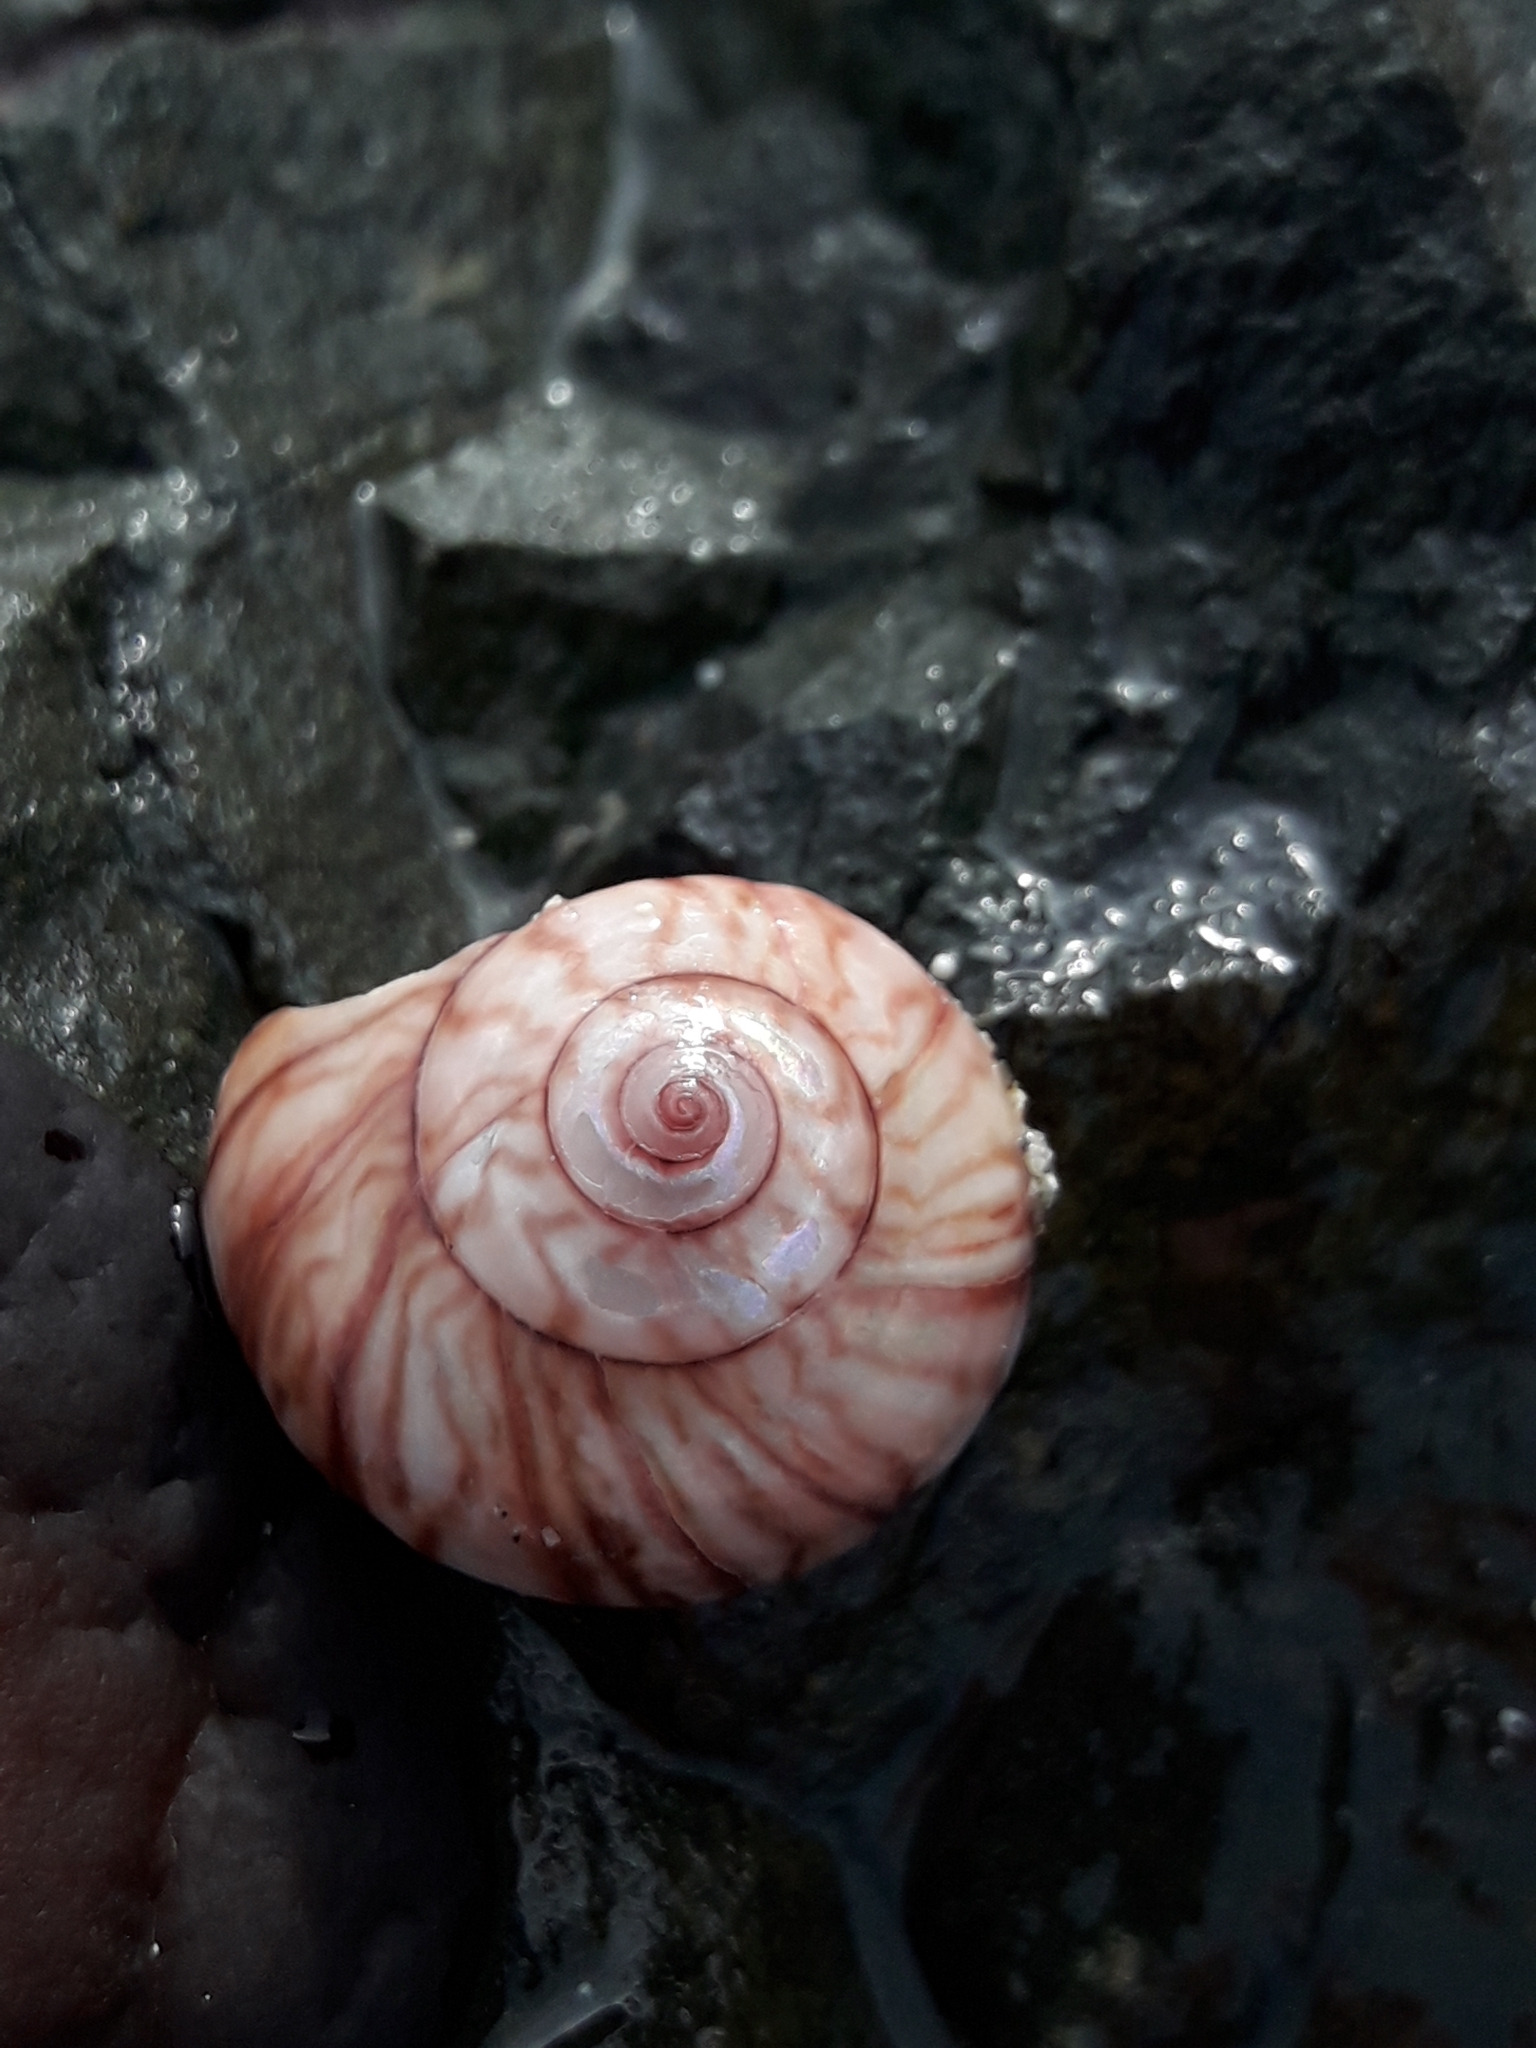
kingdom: Animalia
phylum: Mollusca
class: Gastropoda
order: Trochida
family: Trochidae
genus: Zethalia
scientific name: Zethalia zelandica
